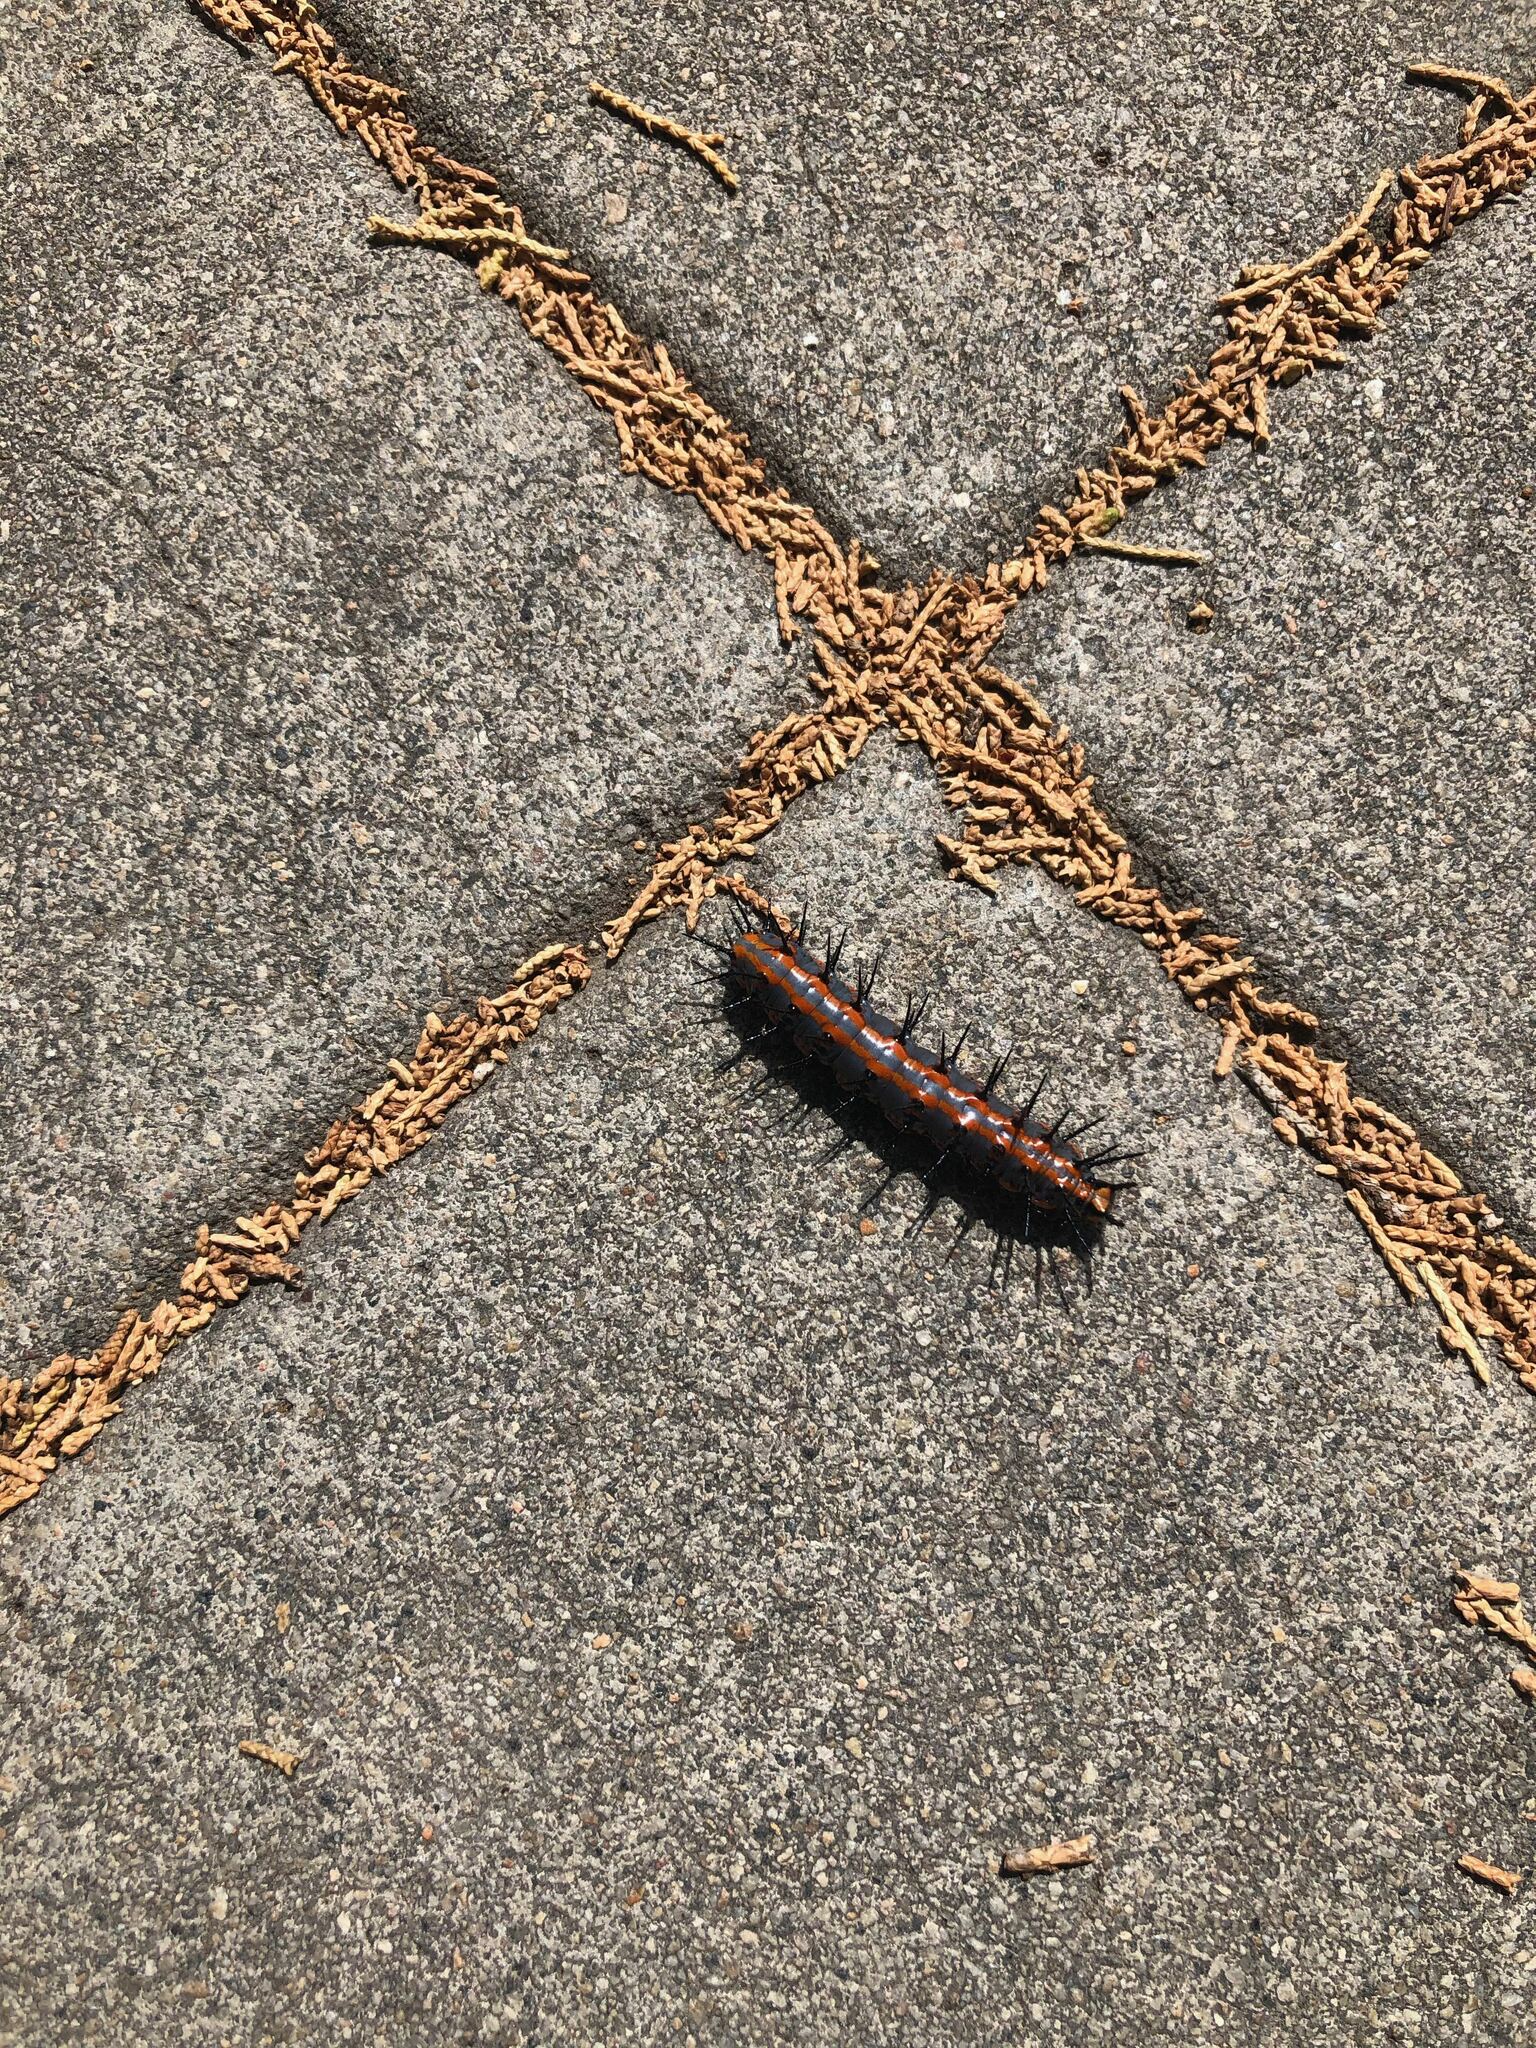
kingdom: Animalia
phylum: Arthropoda
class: Insecta
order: Lepidoptera
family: Nymphalidae
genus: Dione
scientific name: Dione vanillae
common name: Gulf fritillary
